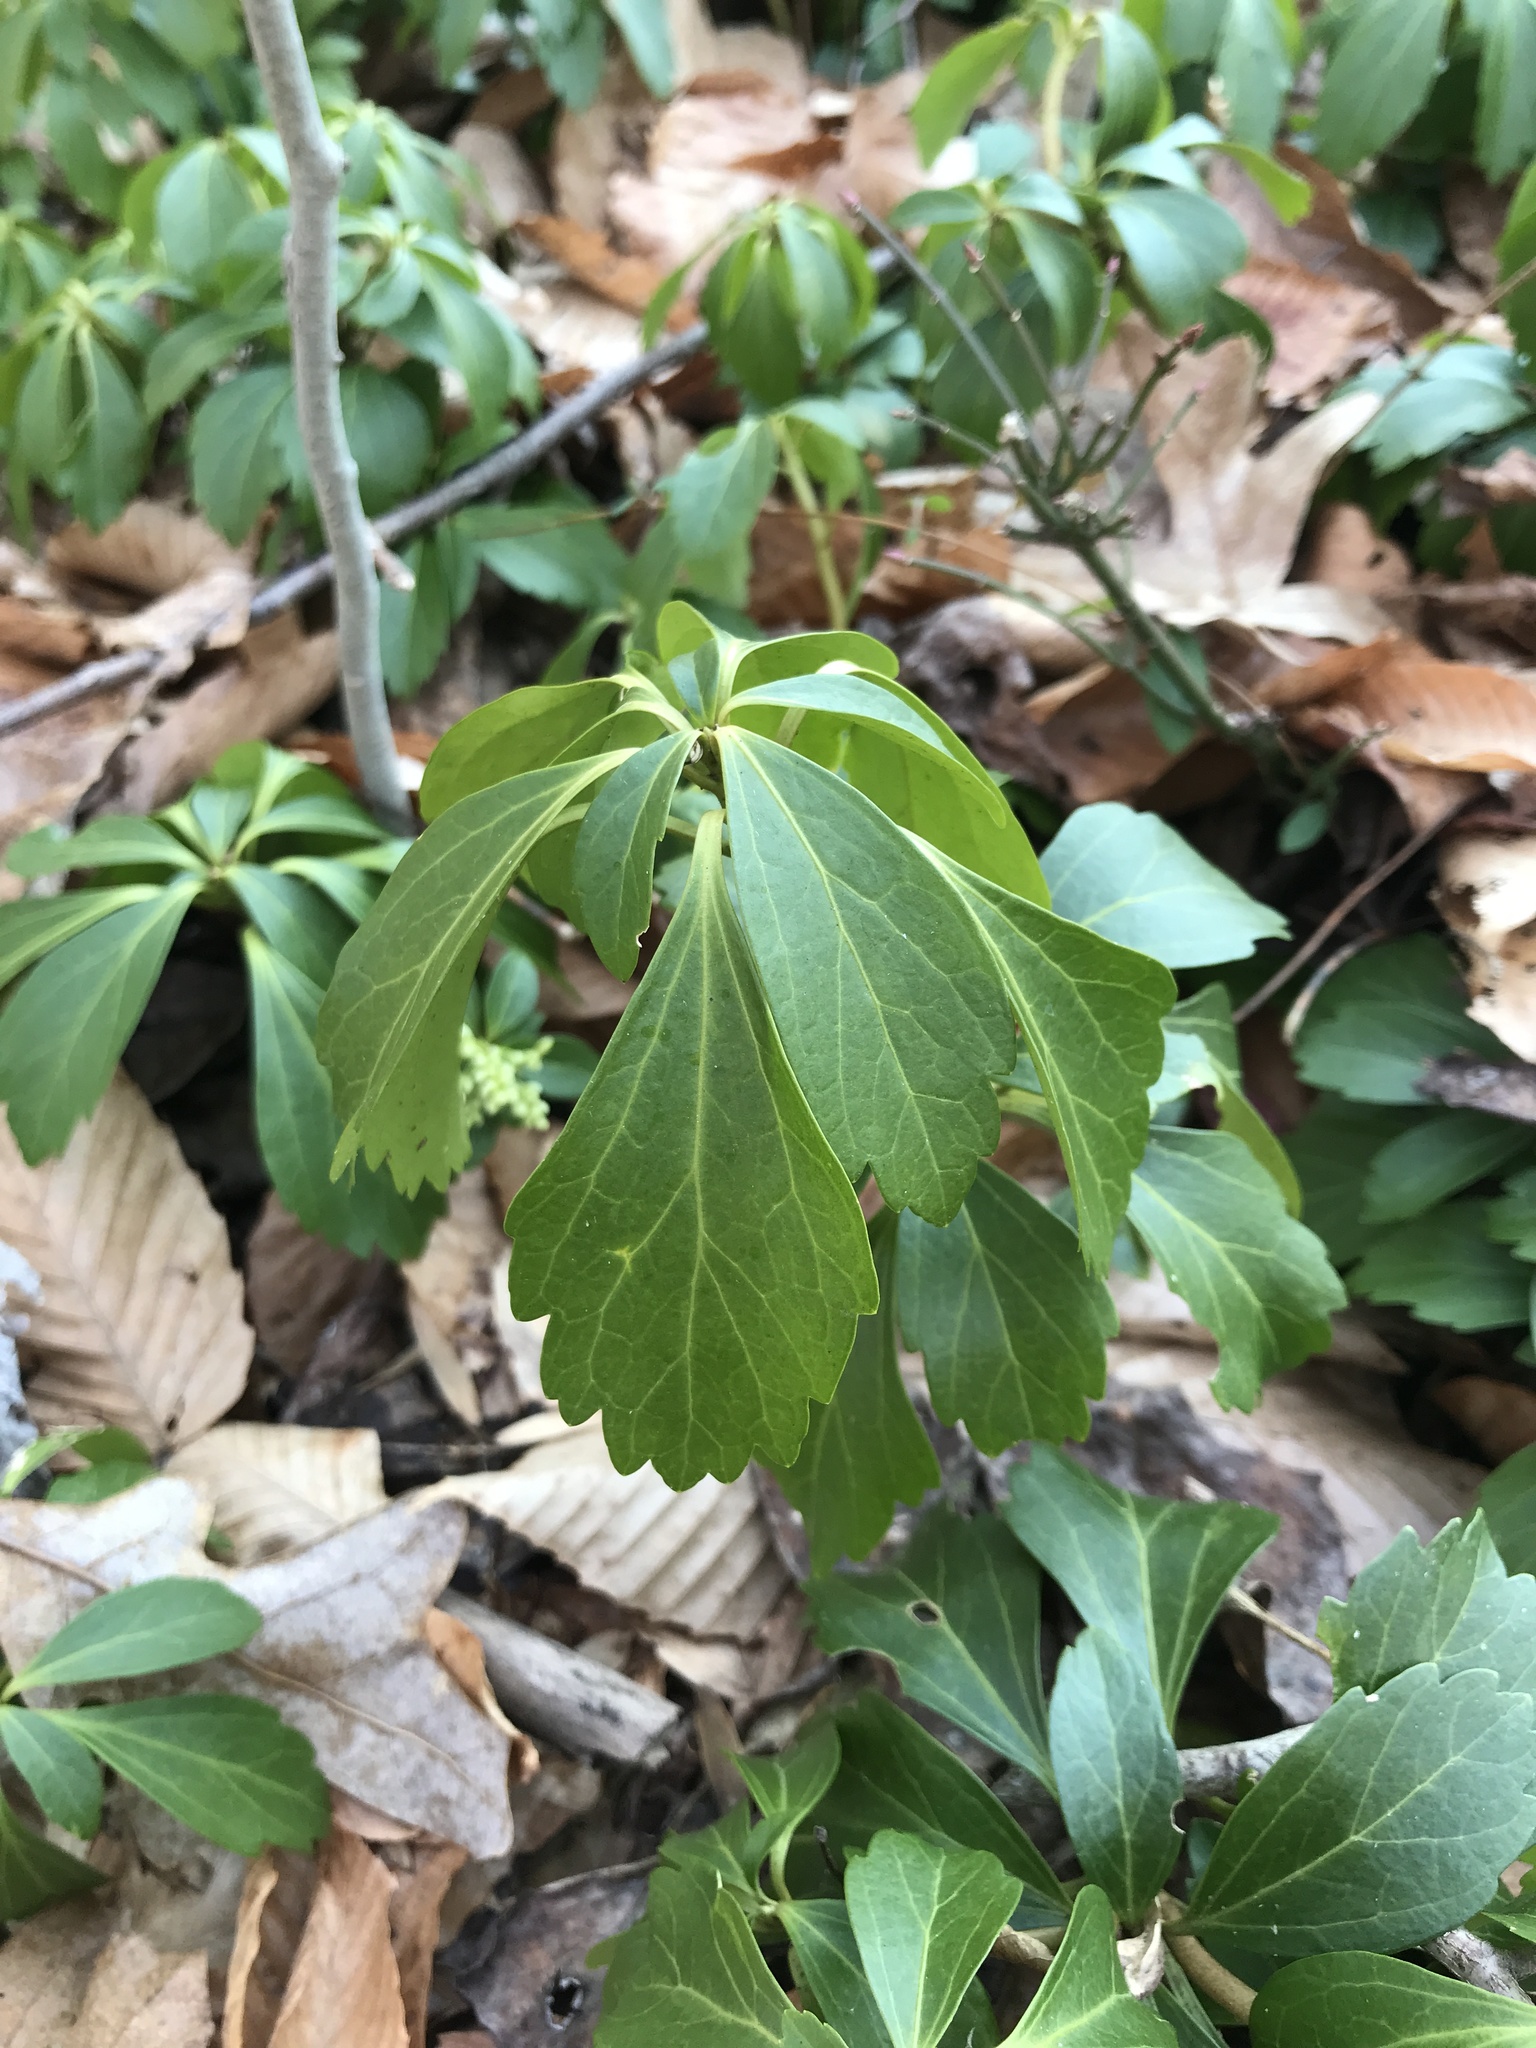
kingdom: Plantae
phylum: Tracheophyta
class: Magnoliopsida
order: Buxales
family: Buxaceae
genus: Pachysandra
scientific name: Pachysandra terminalis
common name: Japanese pachysandra
